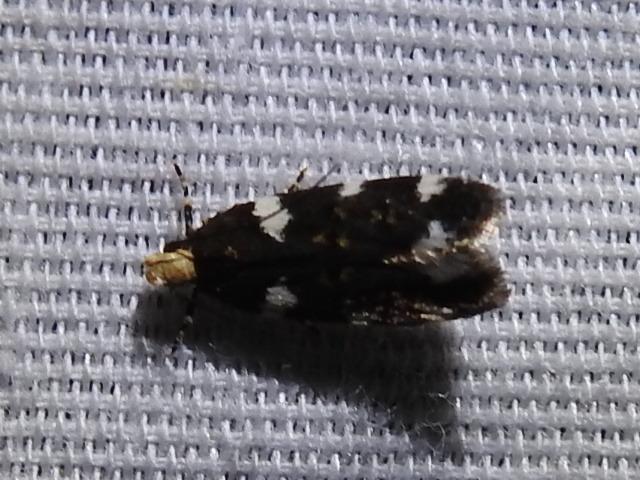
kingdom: Animalia
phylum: Arthropoda
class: Insecta
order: Lepidoptera
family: Gelechiidae
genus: Fascista
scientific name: Fascista cercerisella
